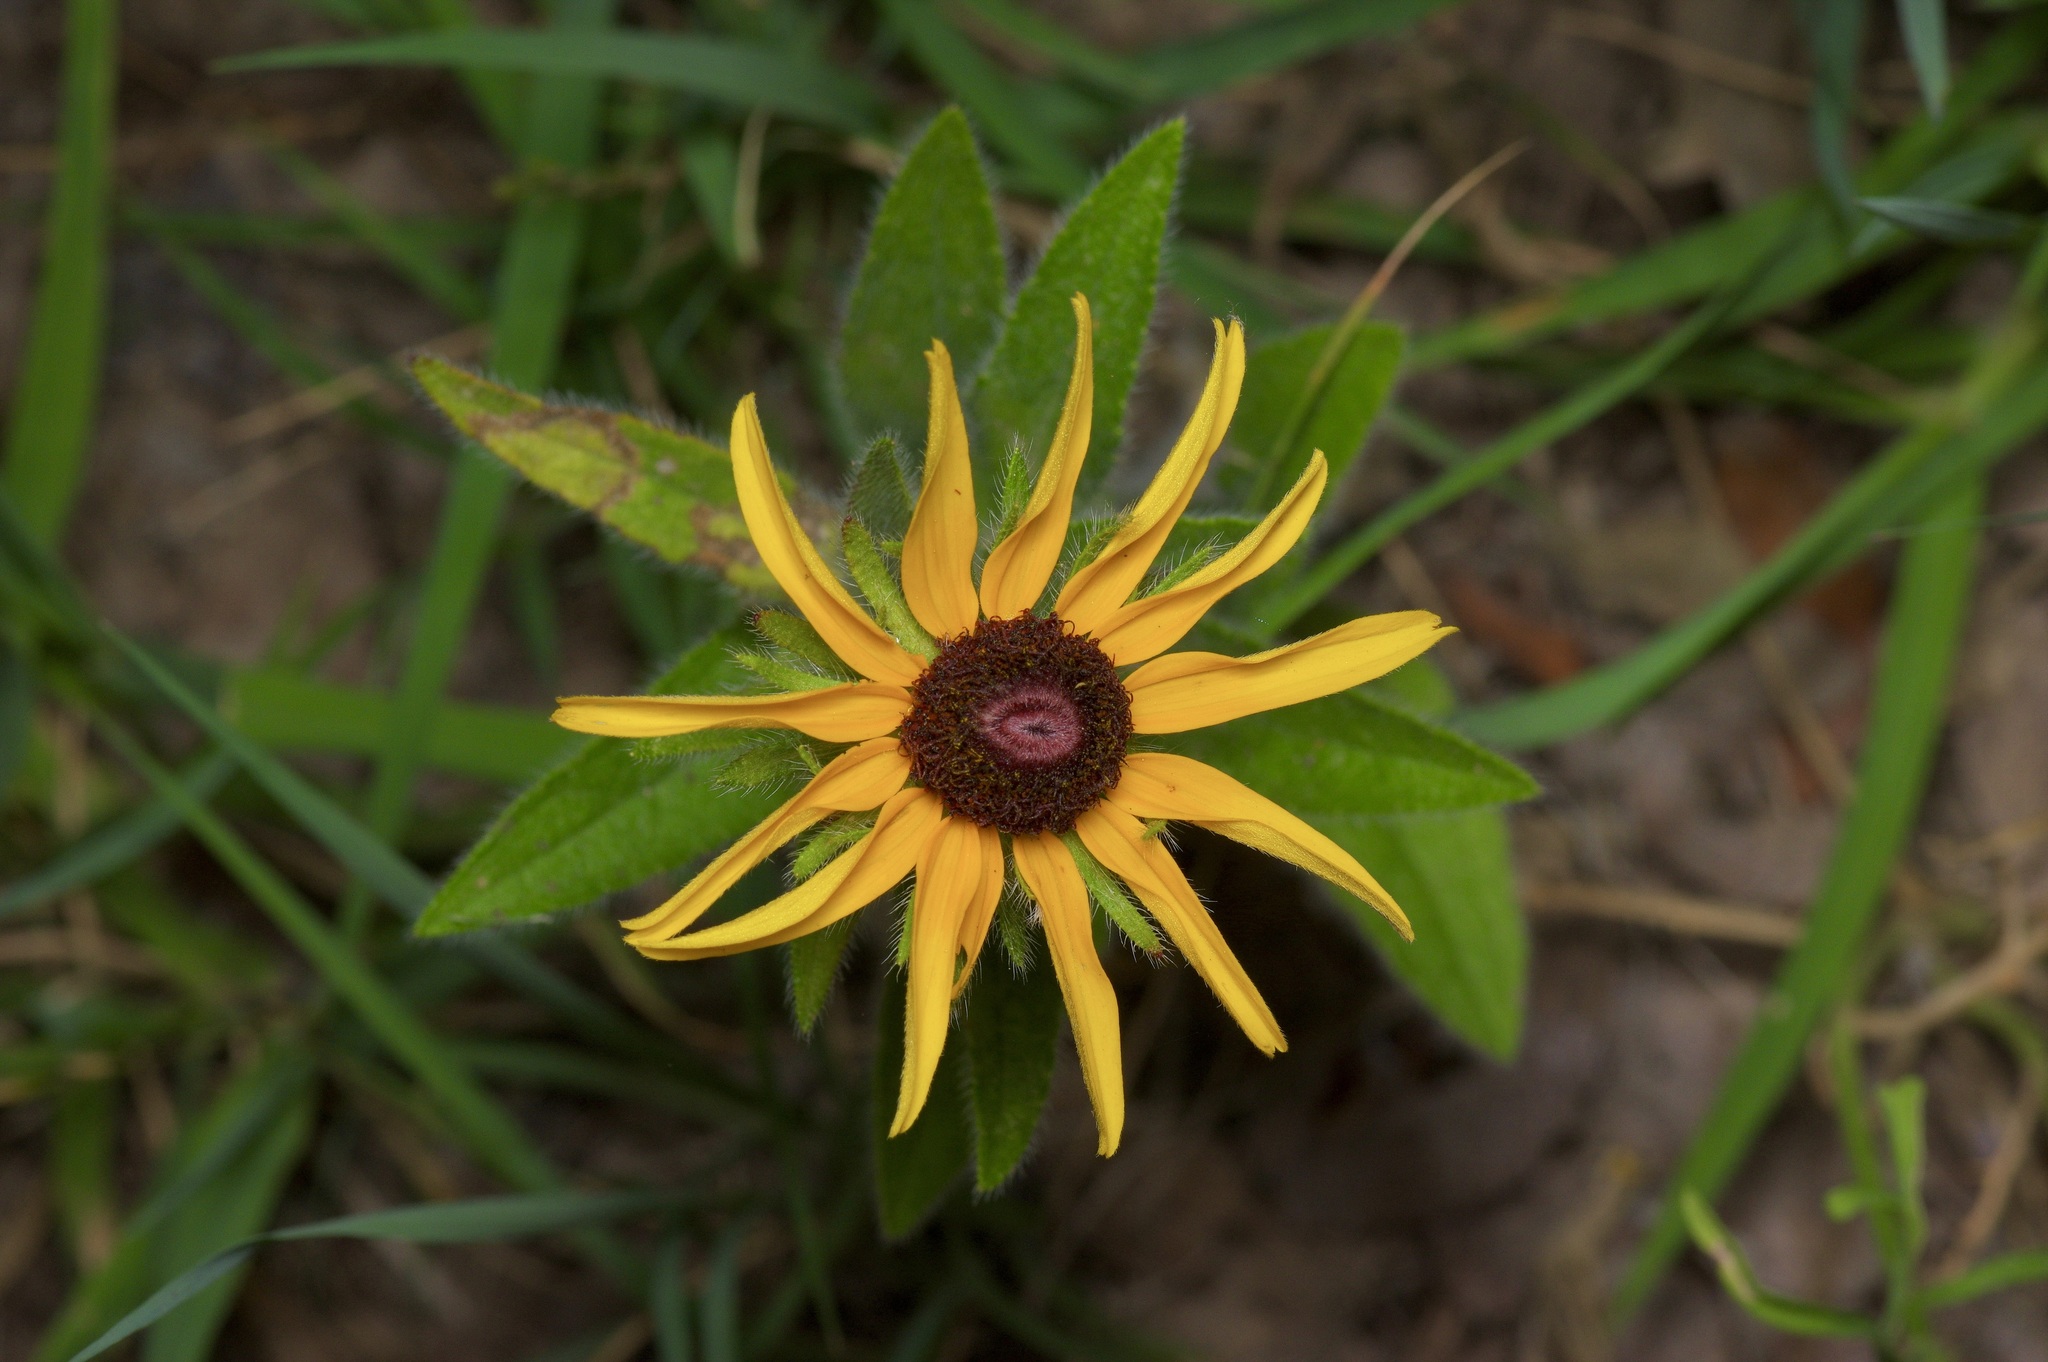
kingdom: Plantae
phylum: Tracheophyta
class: Magnoliopsida
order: Asterales
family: Asteraceae
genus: Rudbeckia
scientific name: Rudbeckia hirta
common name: Black-eyed-susan
